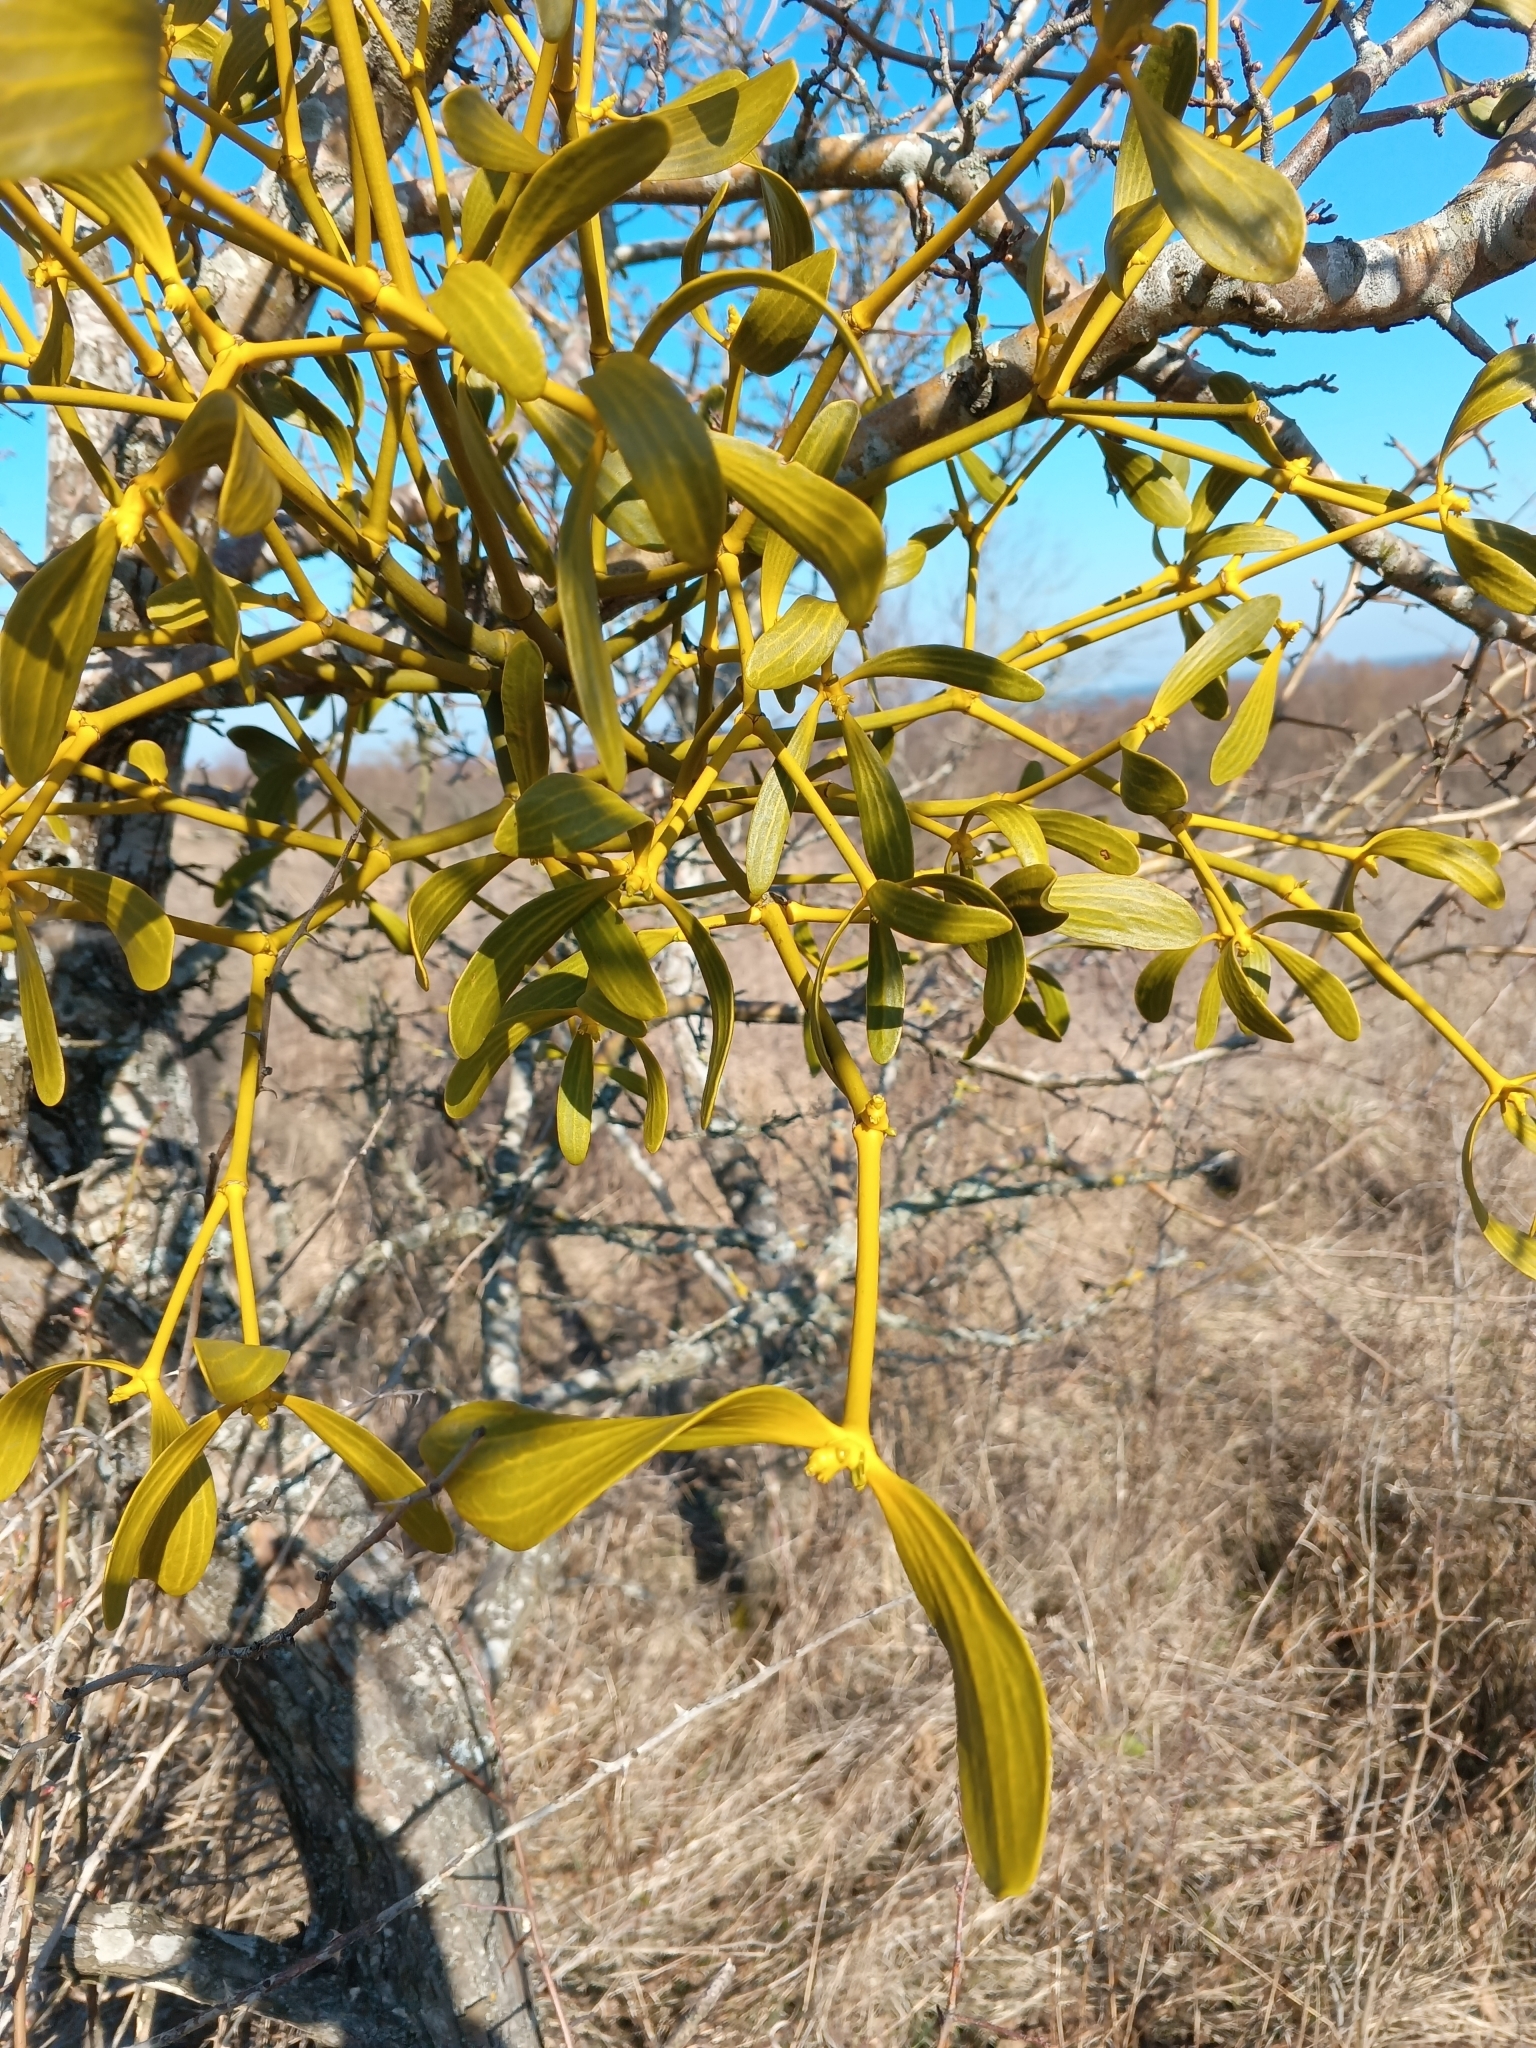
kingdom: Plantae
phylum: Tracheophyta
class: Magnoliopsida
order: Santalales
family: Viscaceae
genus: Viscum
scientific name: Viscum album
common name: Mistletoe
